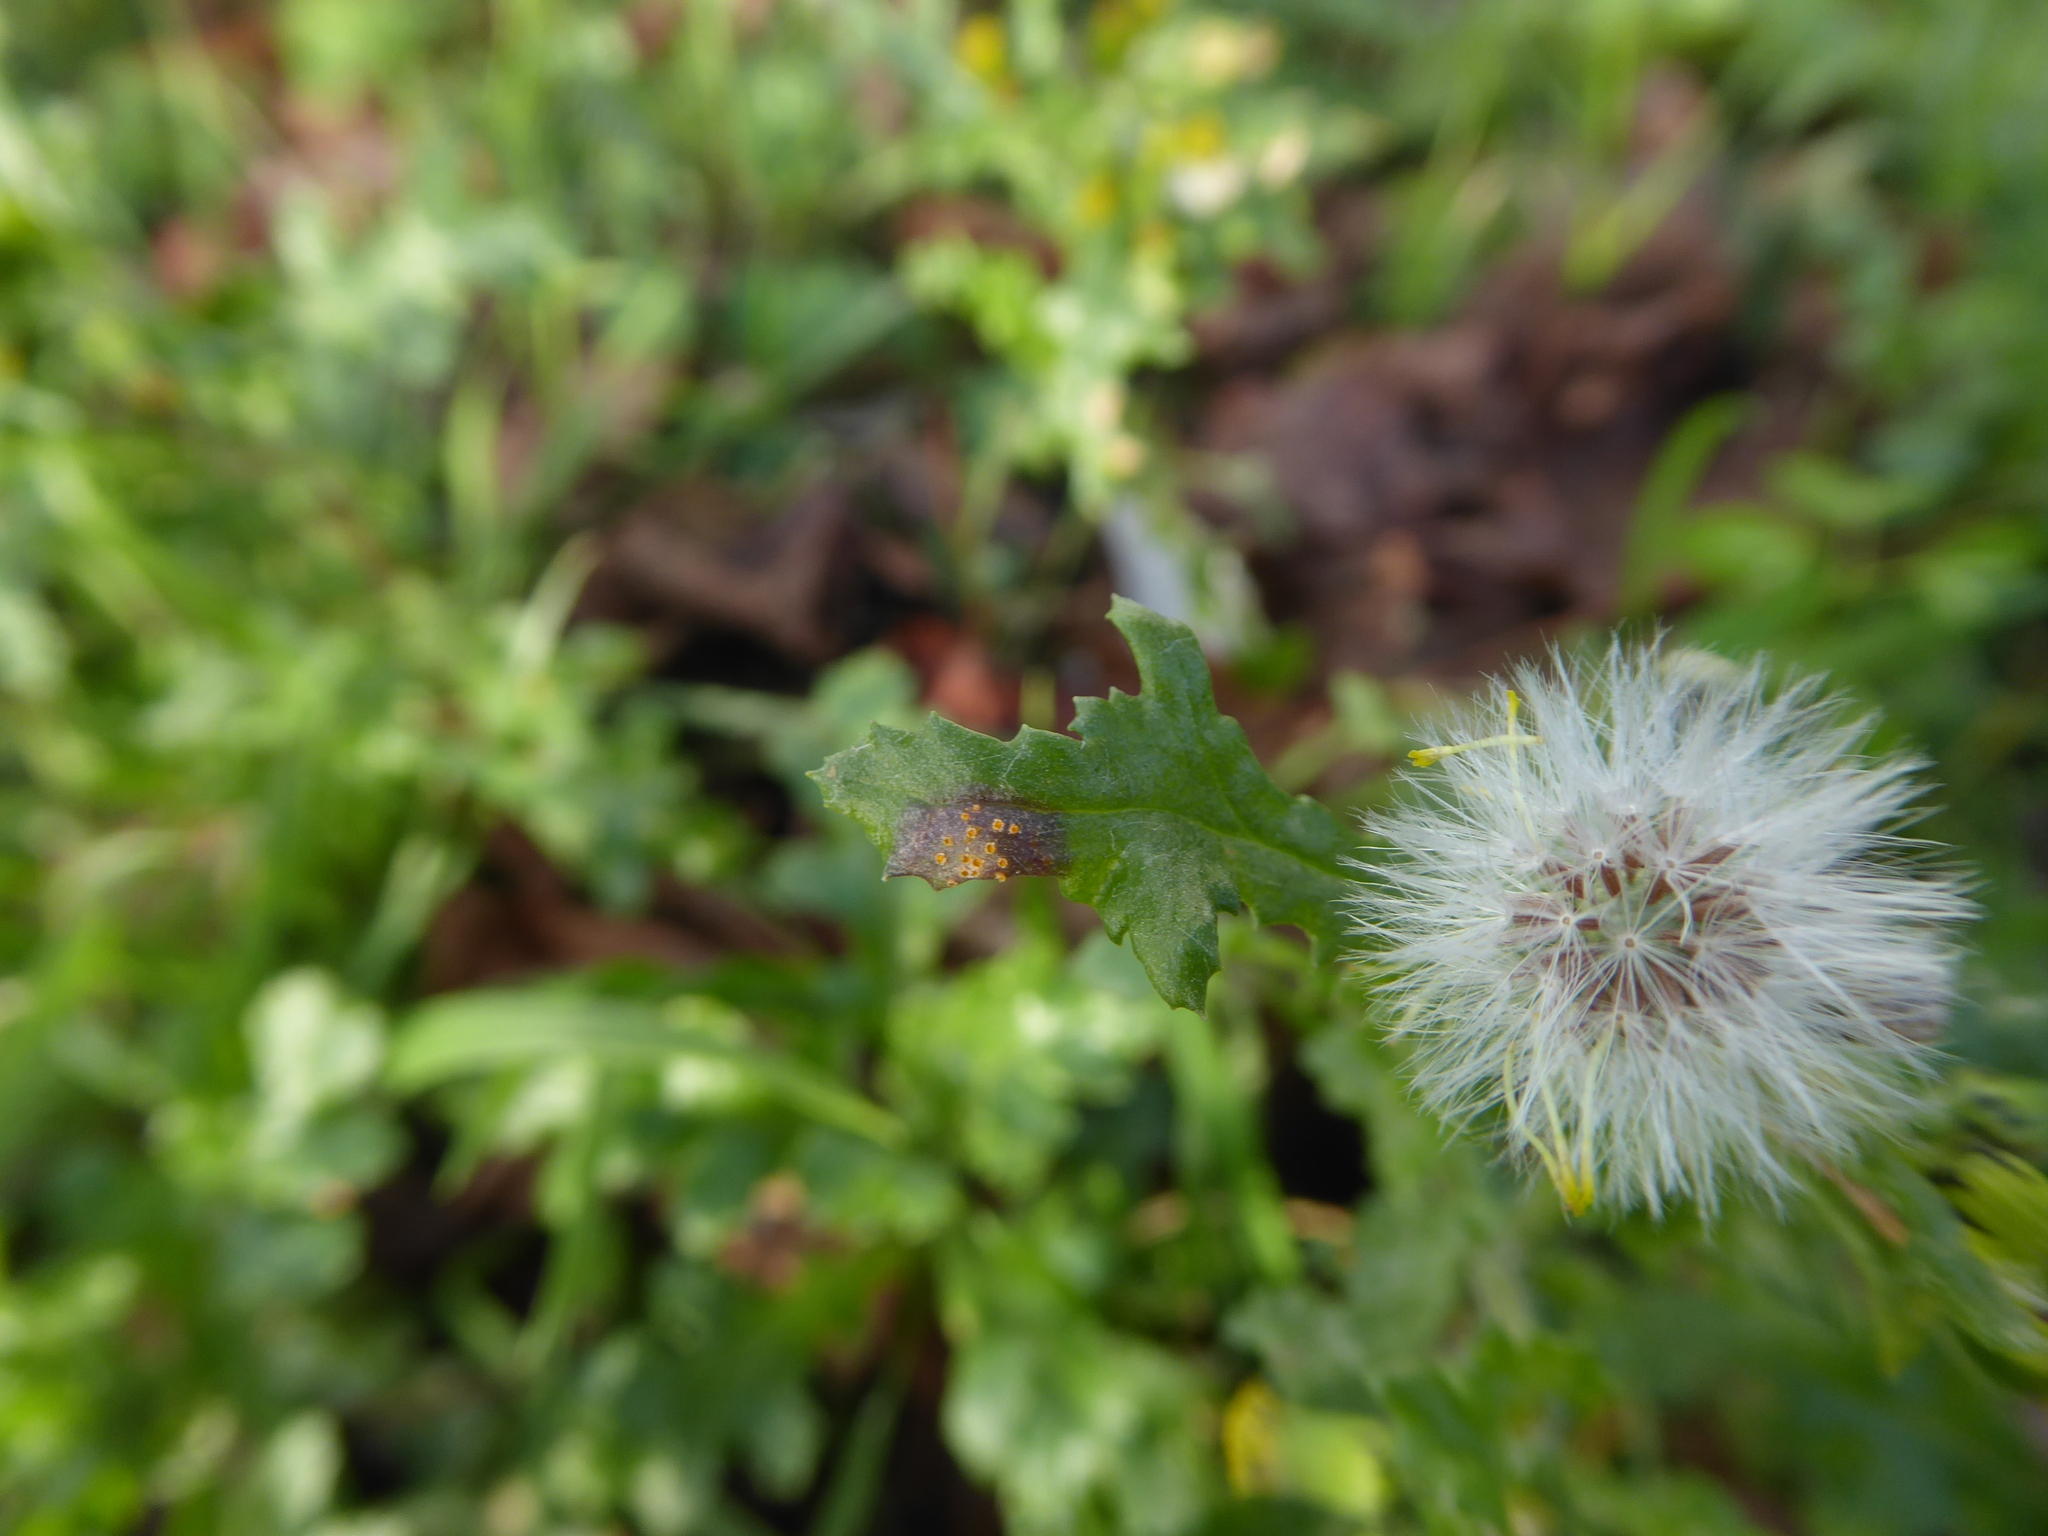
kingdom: Fungi
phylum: Basidiomycota
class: Pucciniomycetes
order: Pucciniales
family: Pucciniaceae
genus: Puccinia
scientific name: Puccinia lagenophorae
